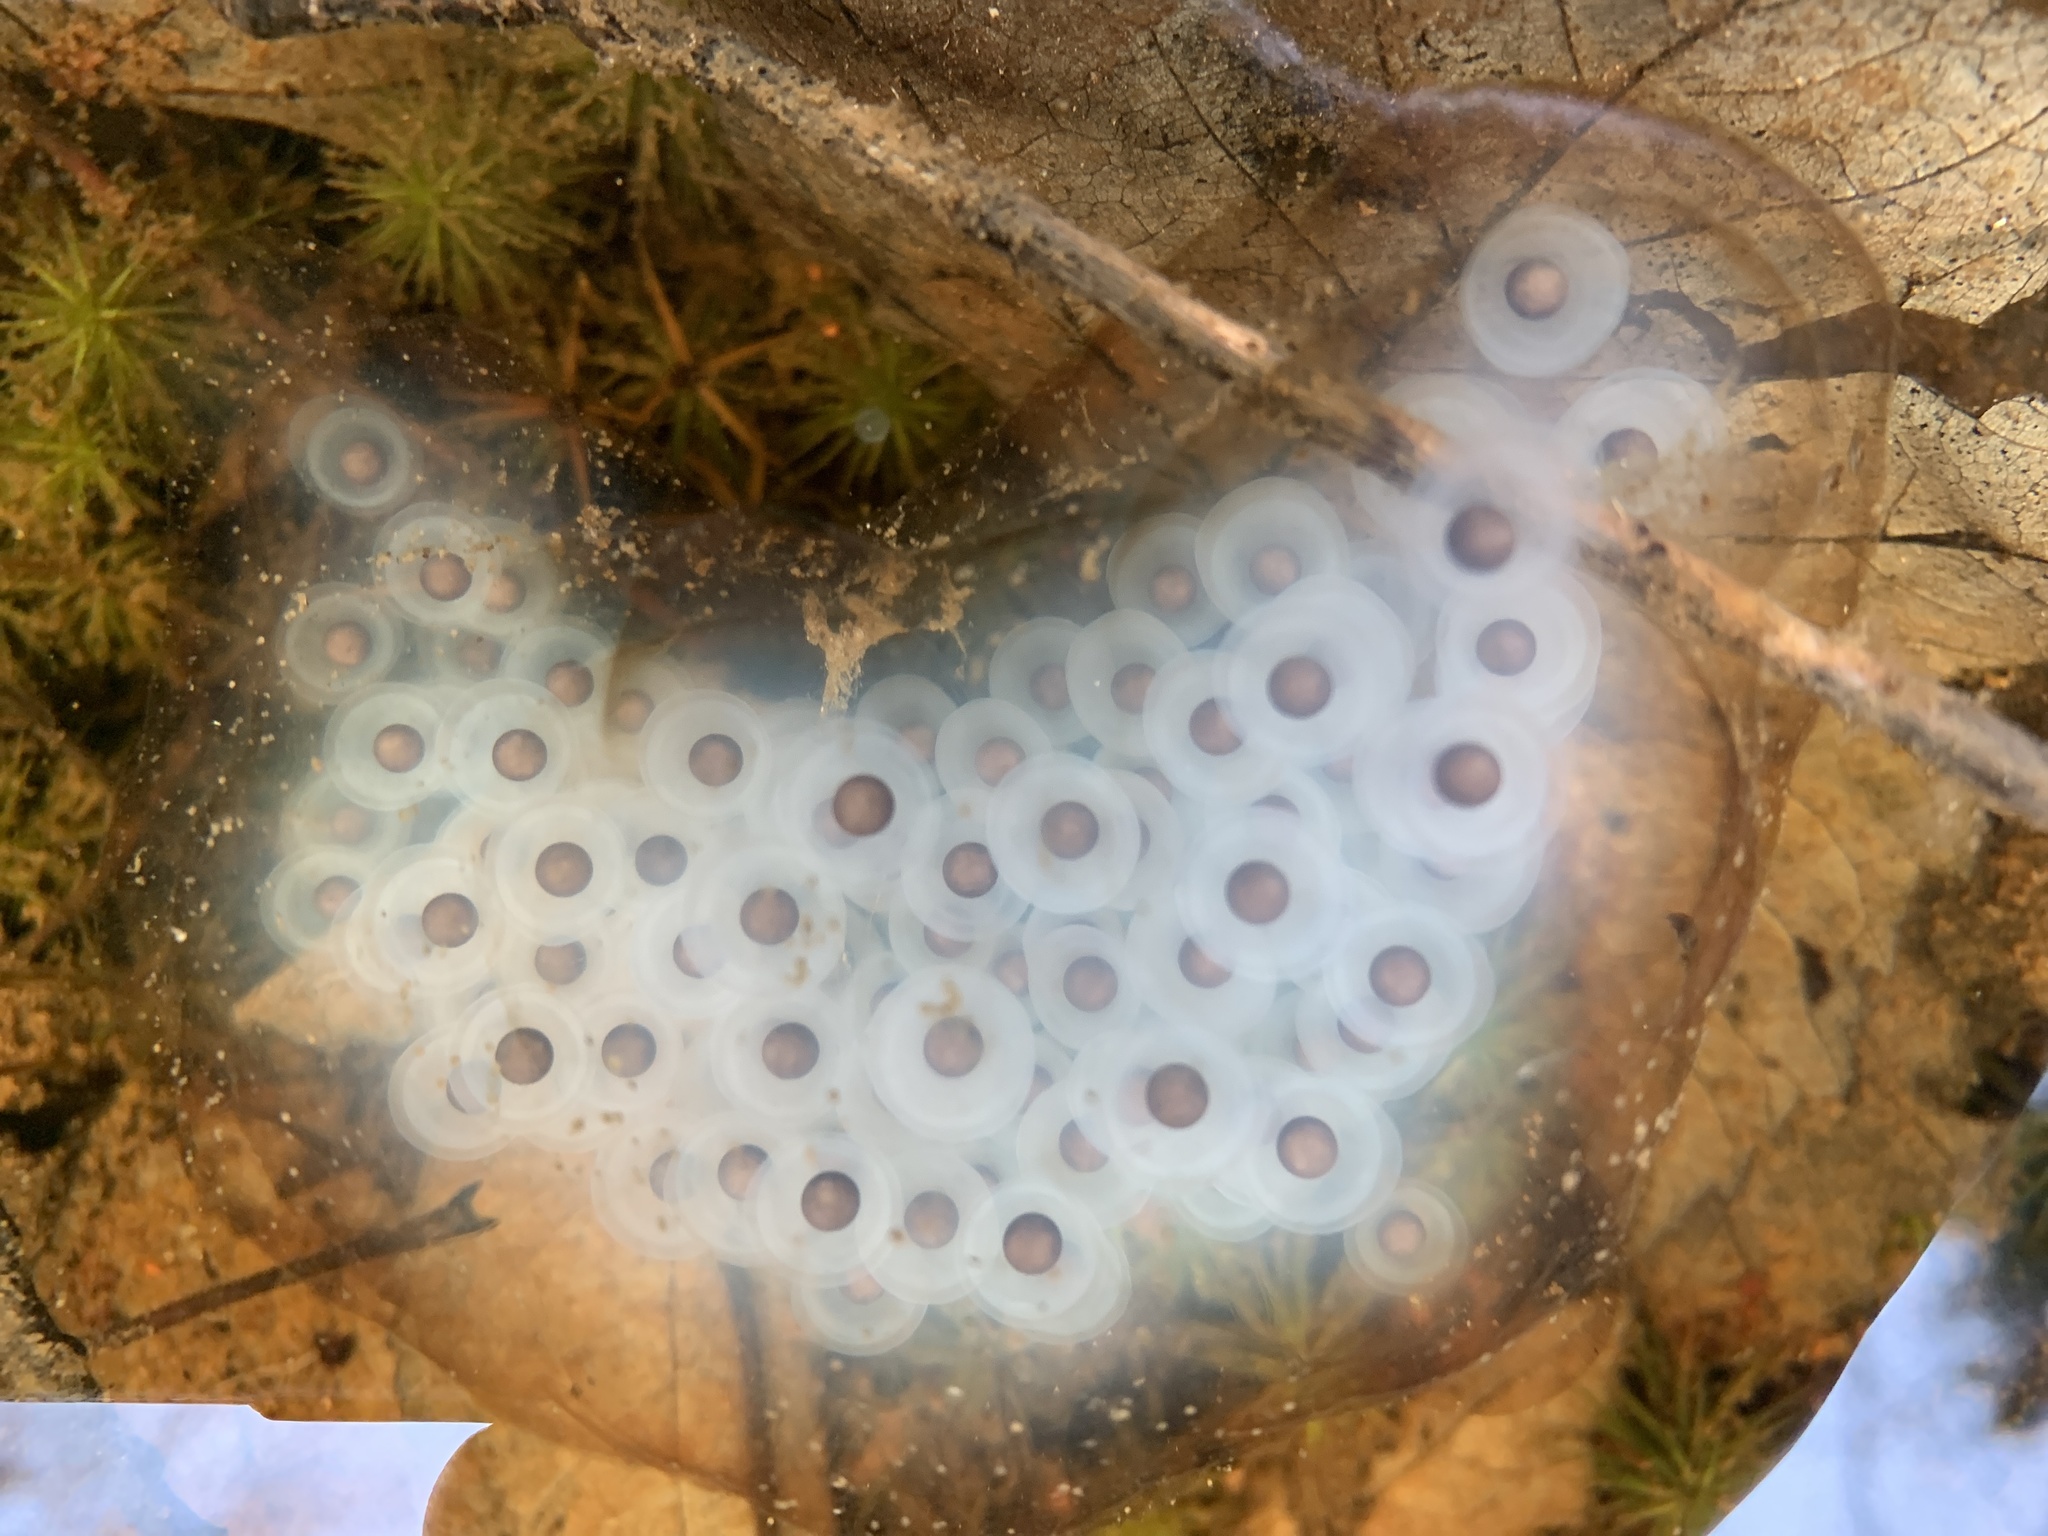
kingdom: Animalia
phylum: Chordata
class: Amphibia
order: Caudata
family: Ambystomatidae
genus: Ambystoma
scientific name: Ambystoma maculatum
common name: Spotted salamander
